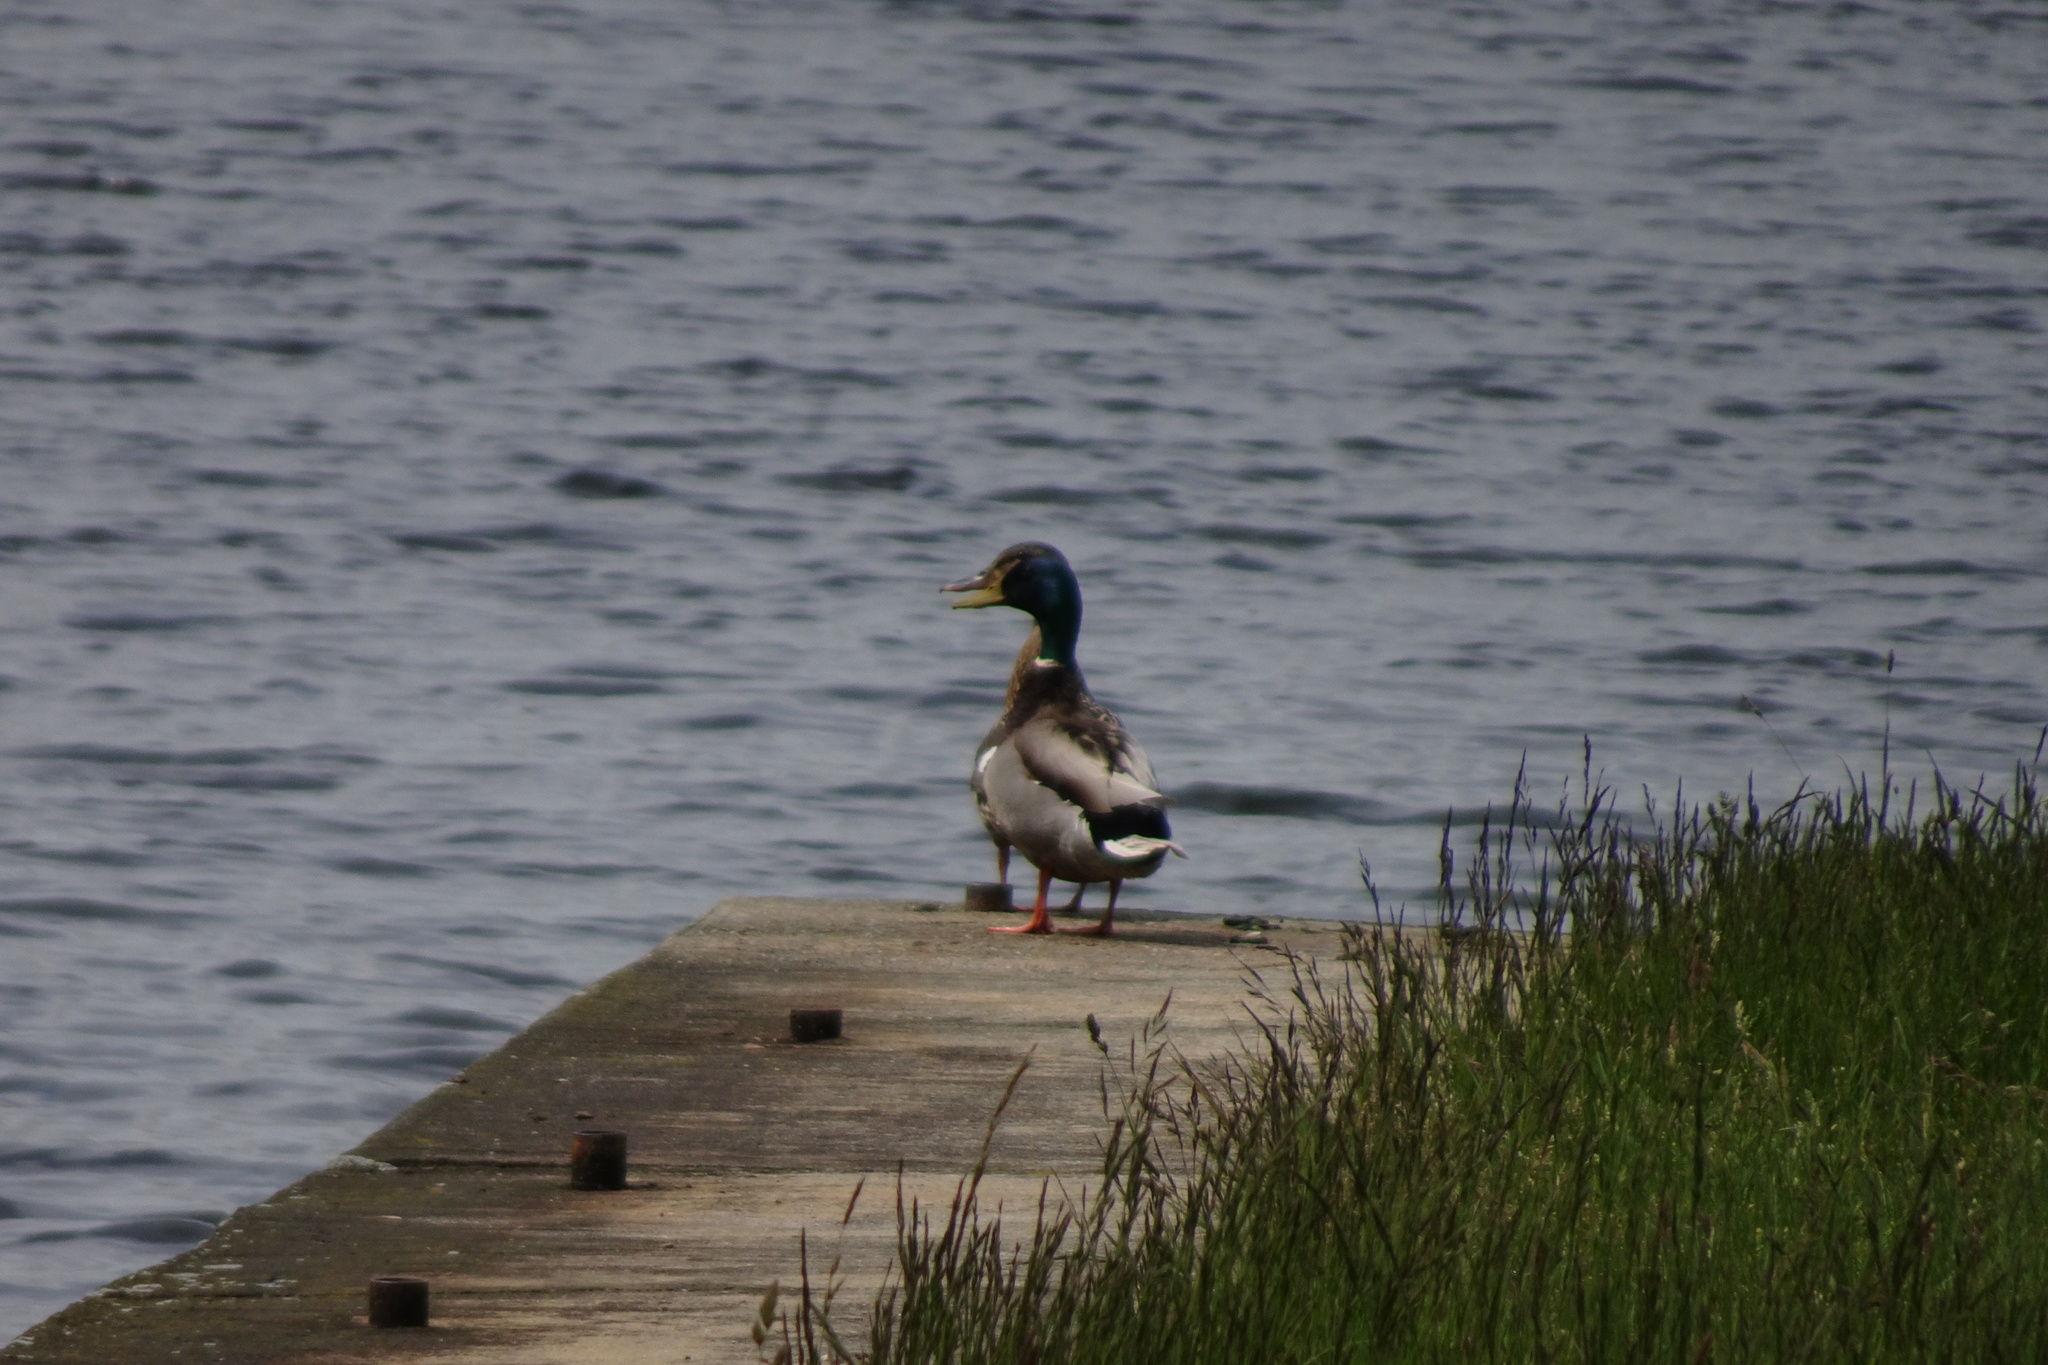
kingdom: Animalia
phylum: Chordata
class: Aves
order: Anseriformes
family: Anatidae
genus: Anas
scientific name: Anas platyrhynchos
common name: Mallard
